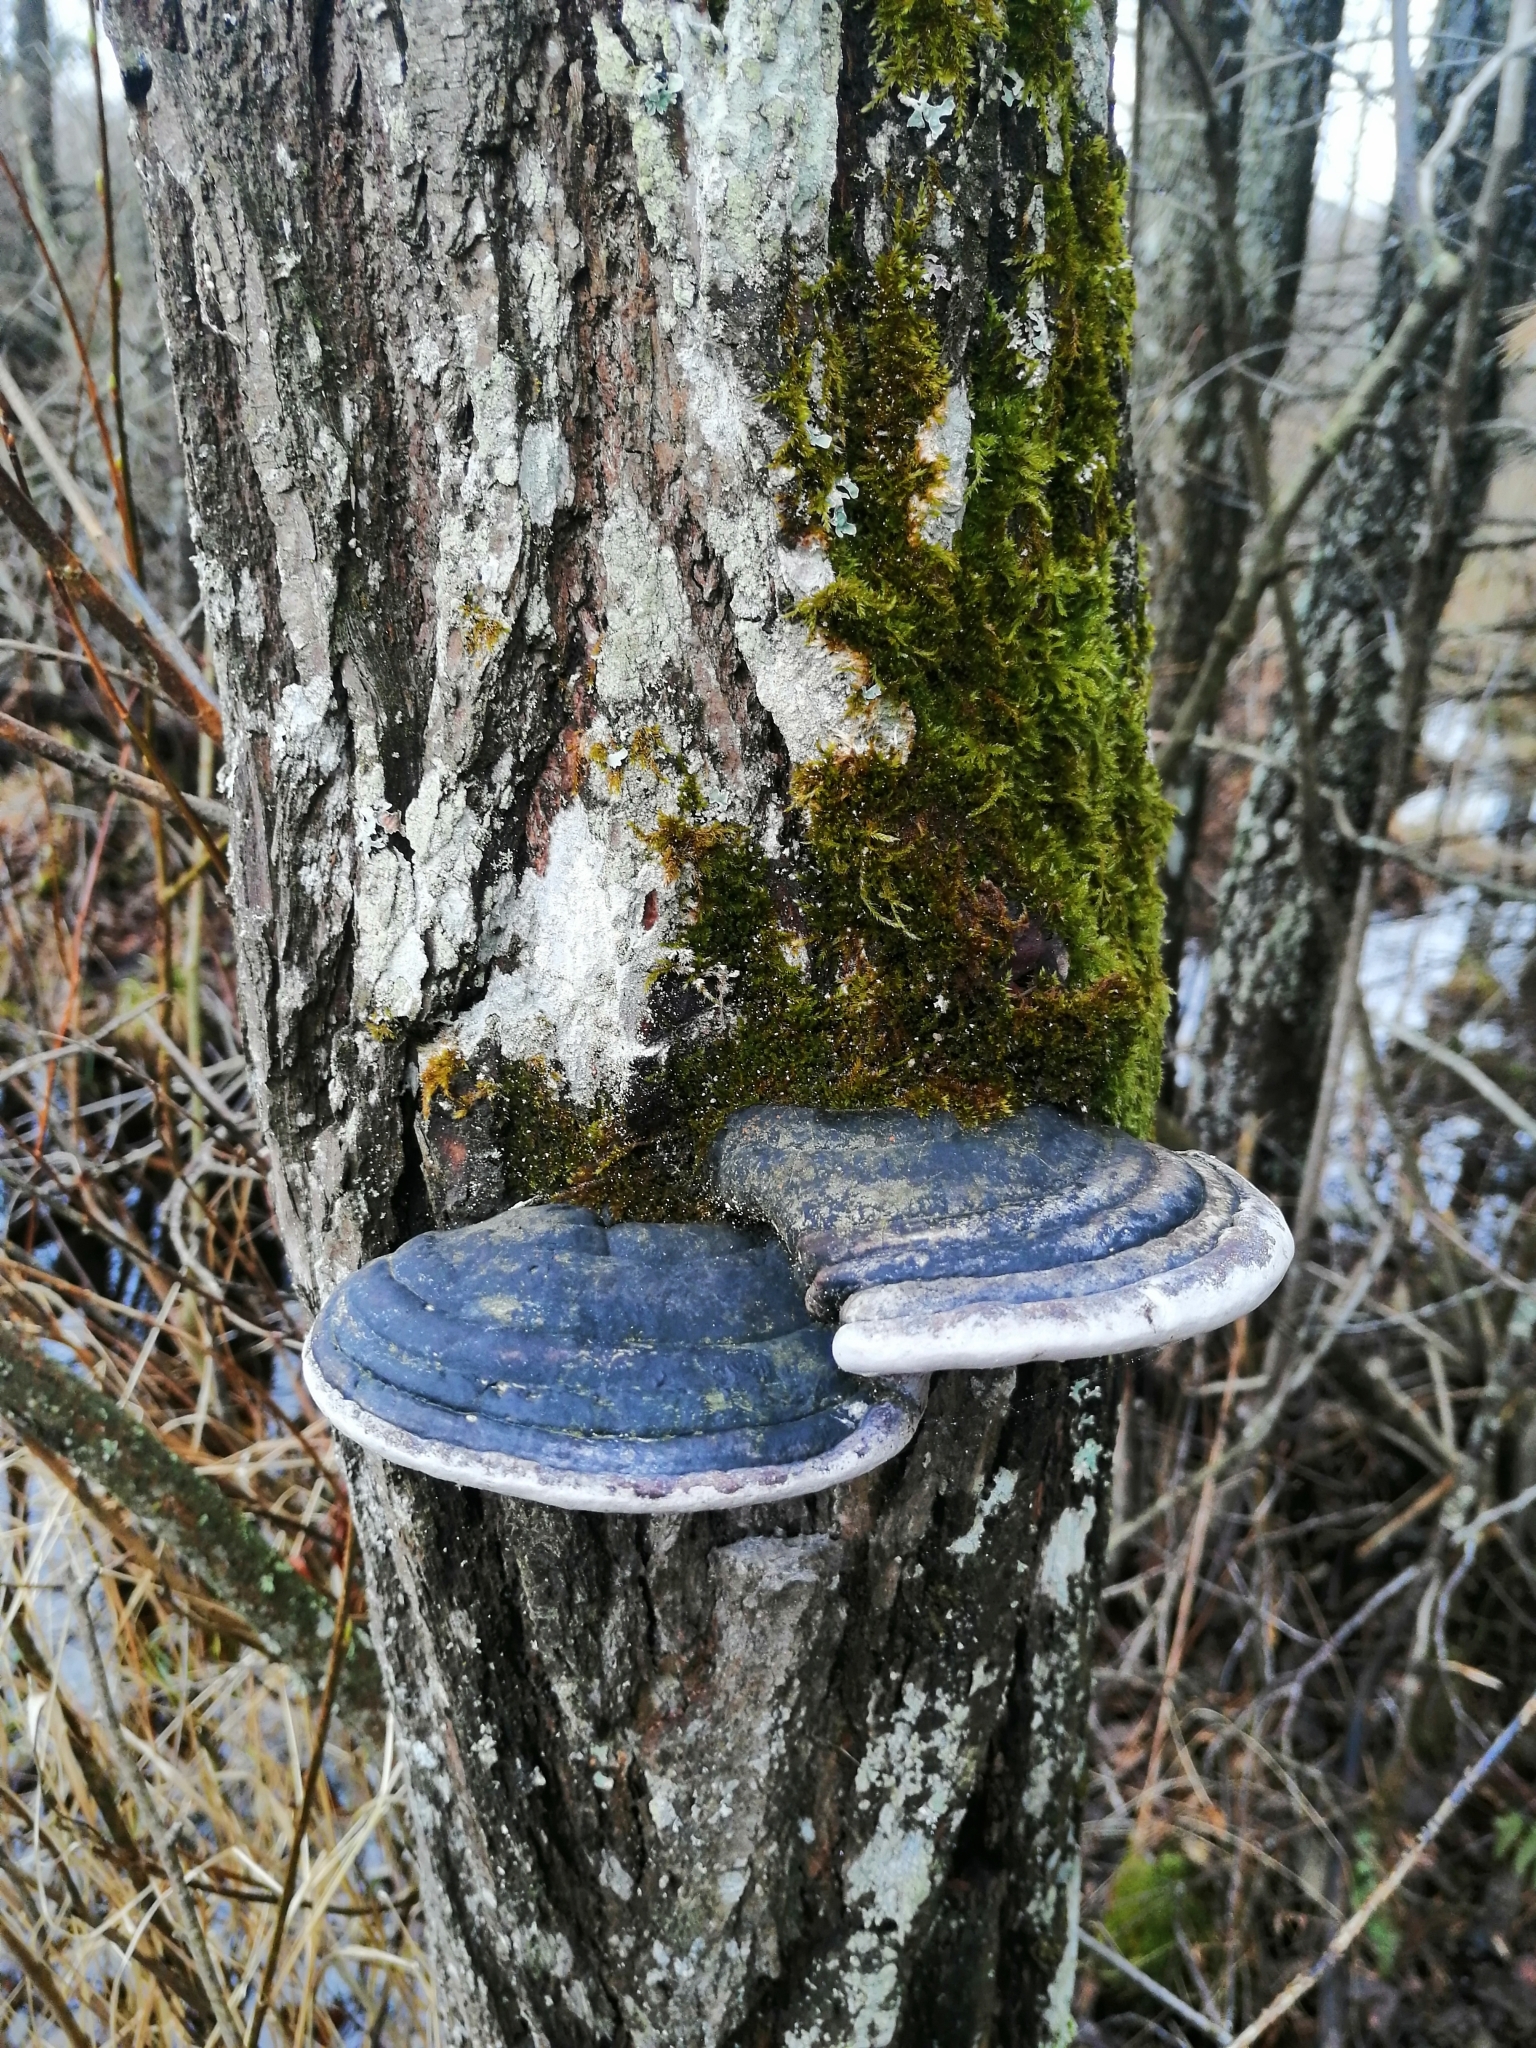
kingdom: Fungi
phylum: Basidiomycota
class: Agaricomycetes
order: Hymenochaetales
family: Hymenochaetaceae
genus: Phellinus
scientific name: Phellinus igniarius
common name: Willow bracket
